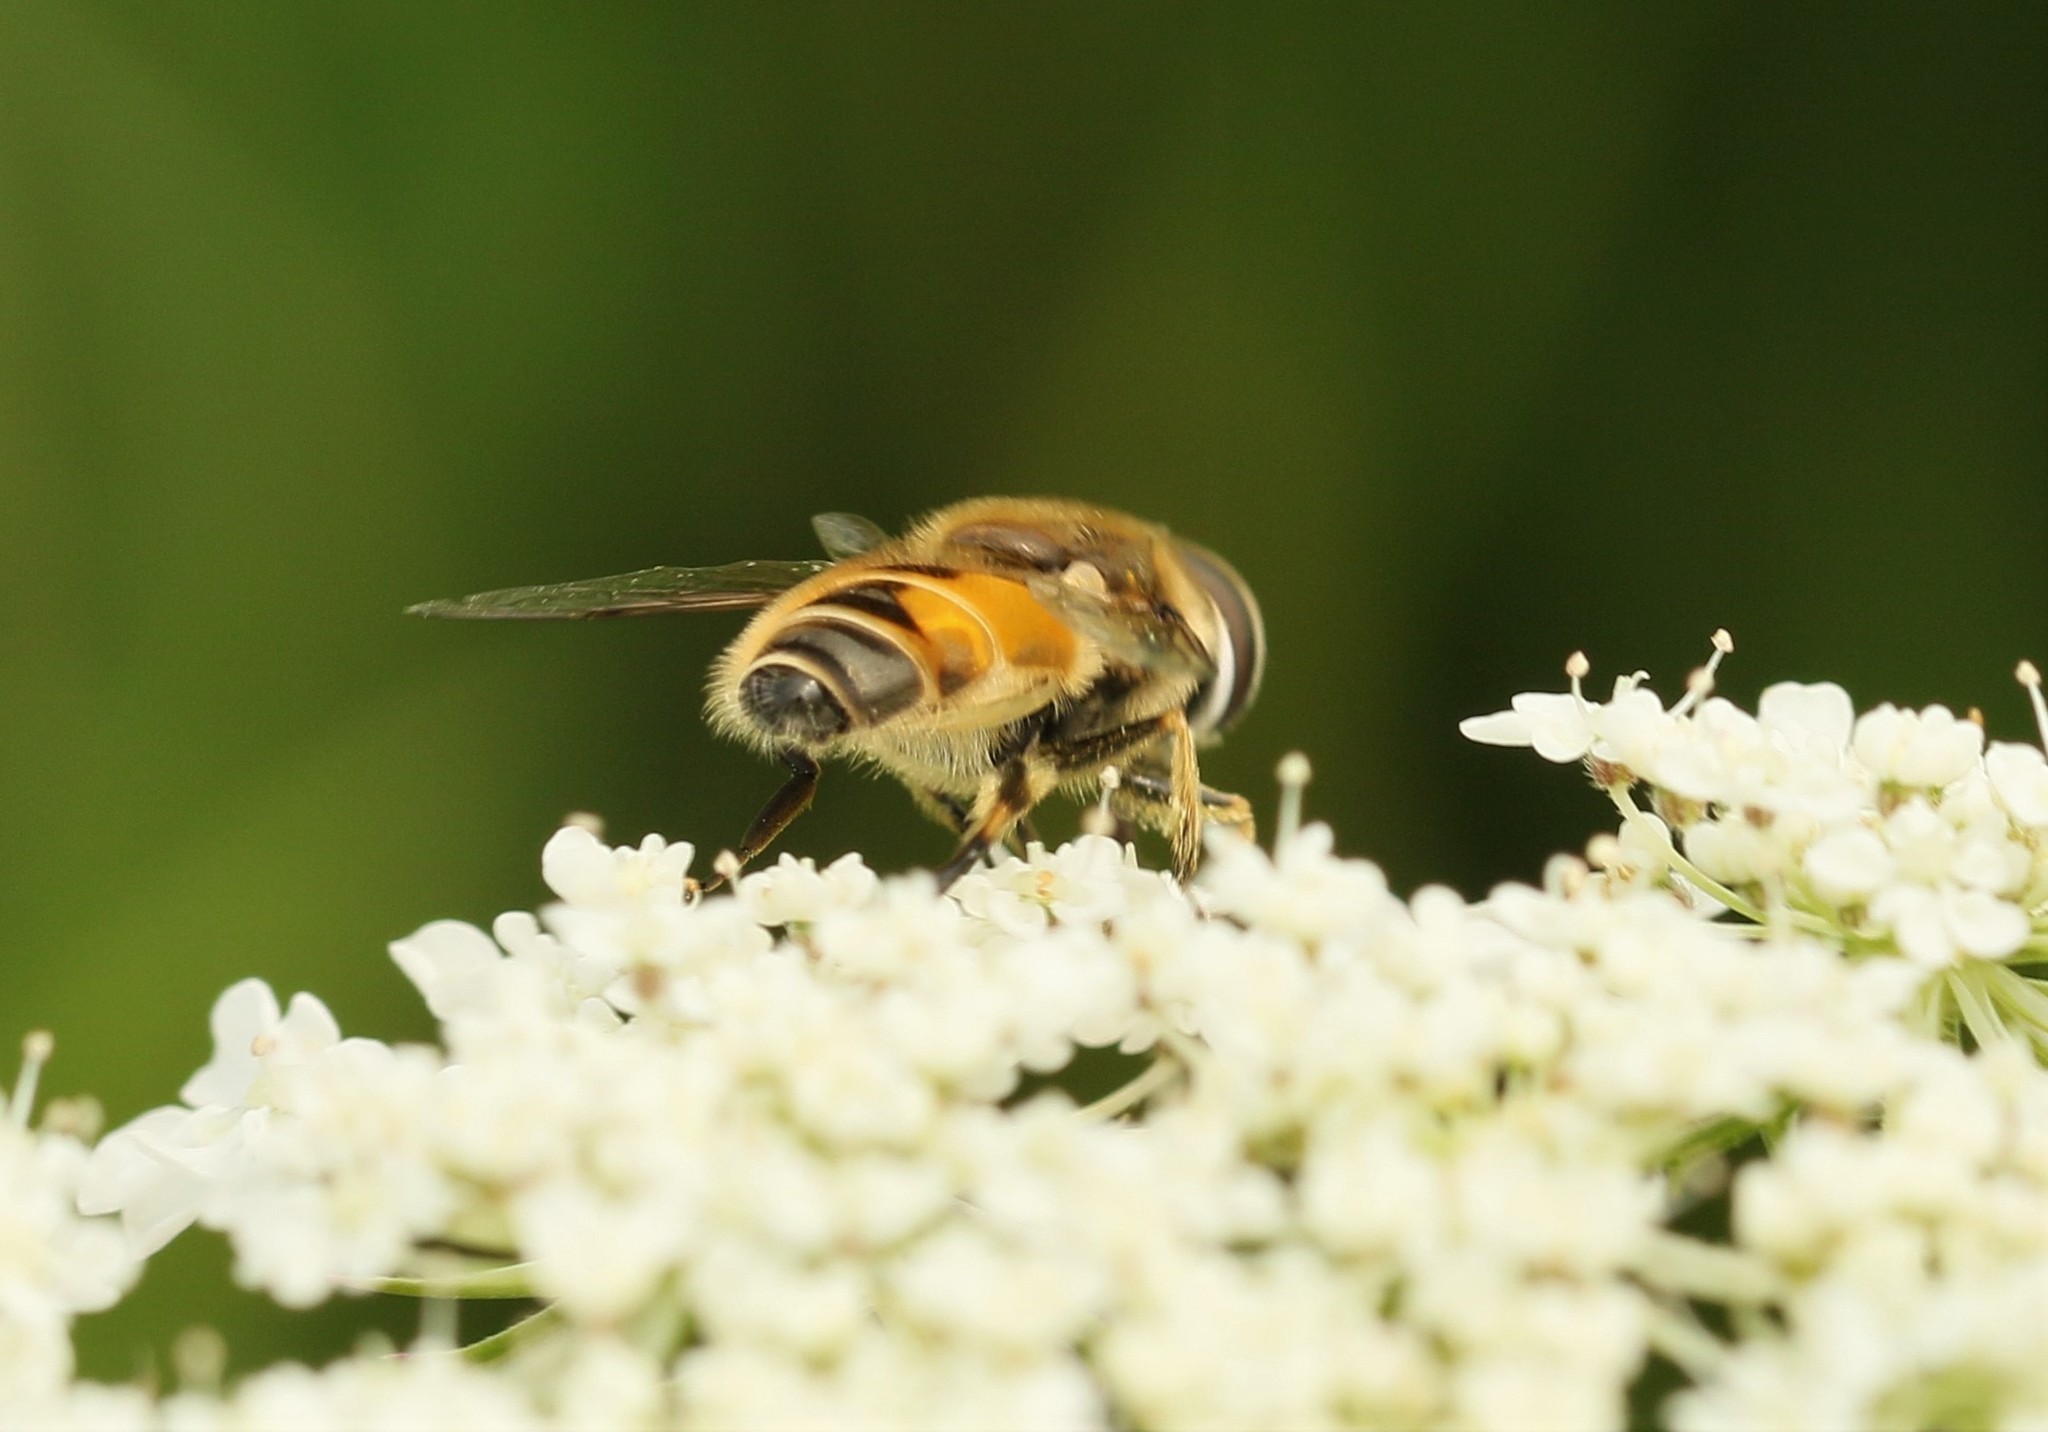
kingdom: Animalia
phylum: Arthropoda
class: Insecta
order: Diptera
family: Syrphidae
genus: Eristalis
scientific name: Eristalis arbustorum
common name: Hover fly
